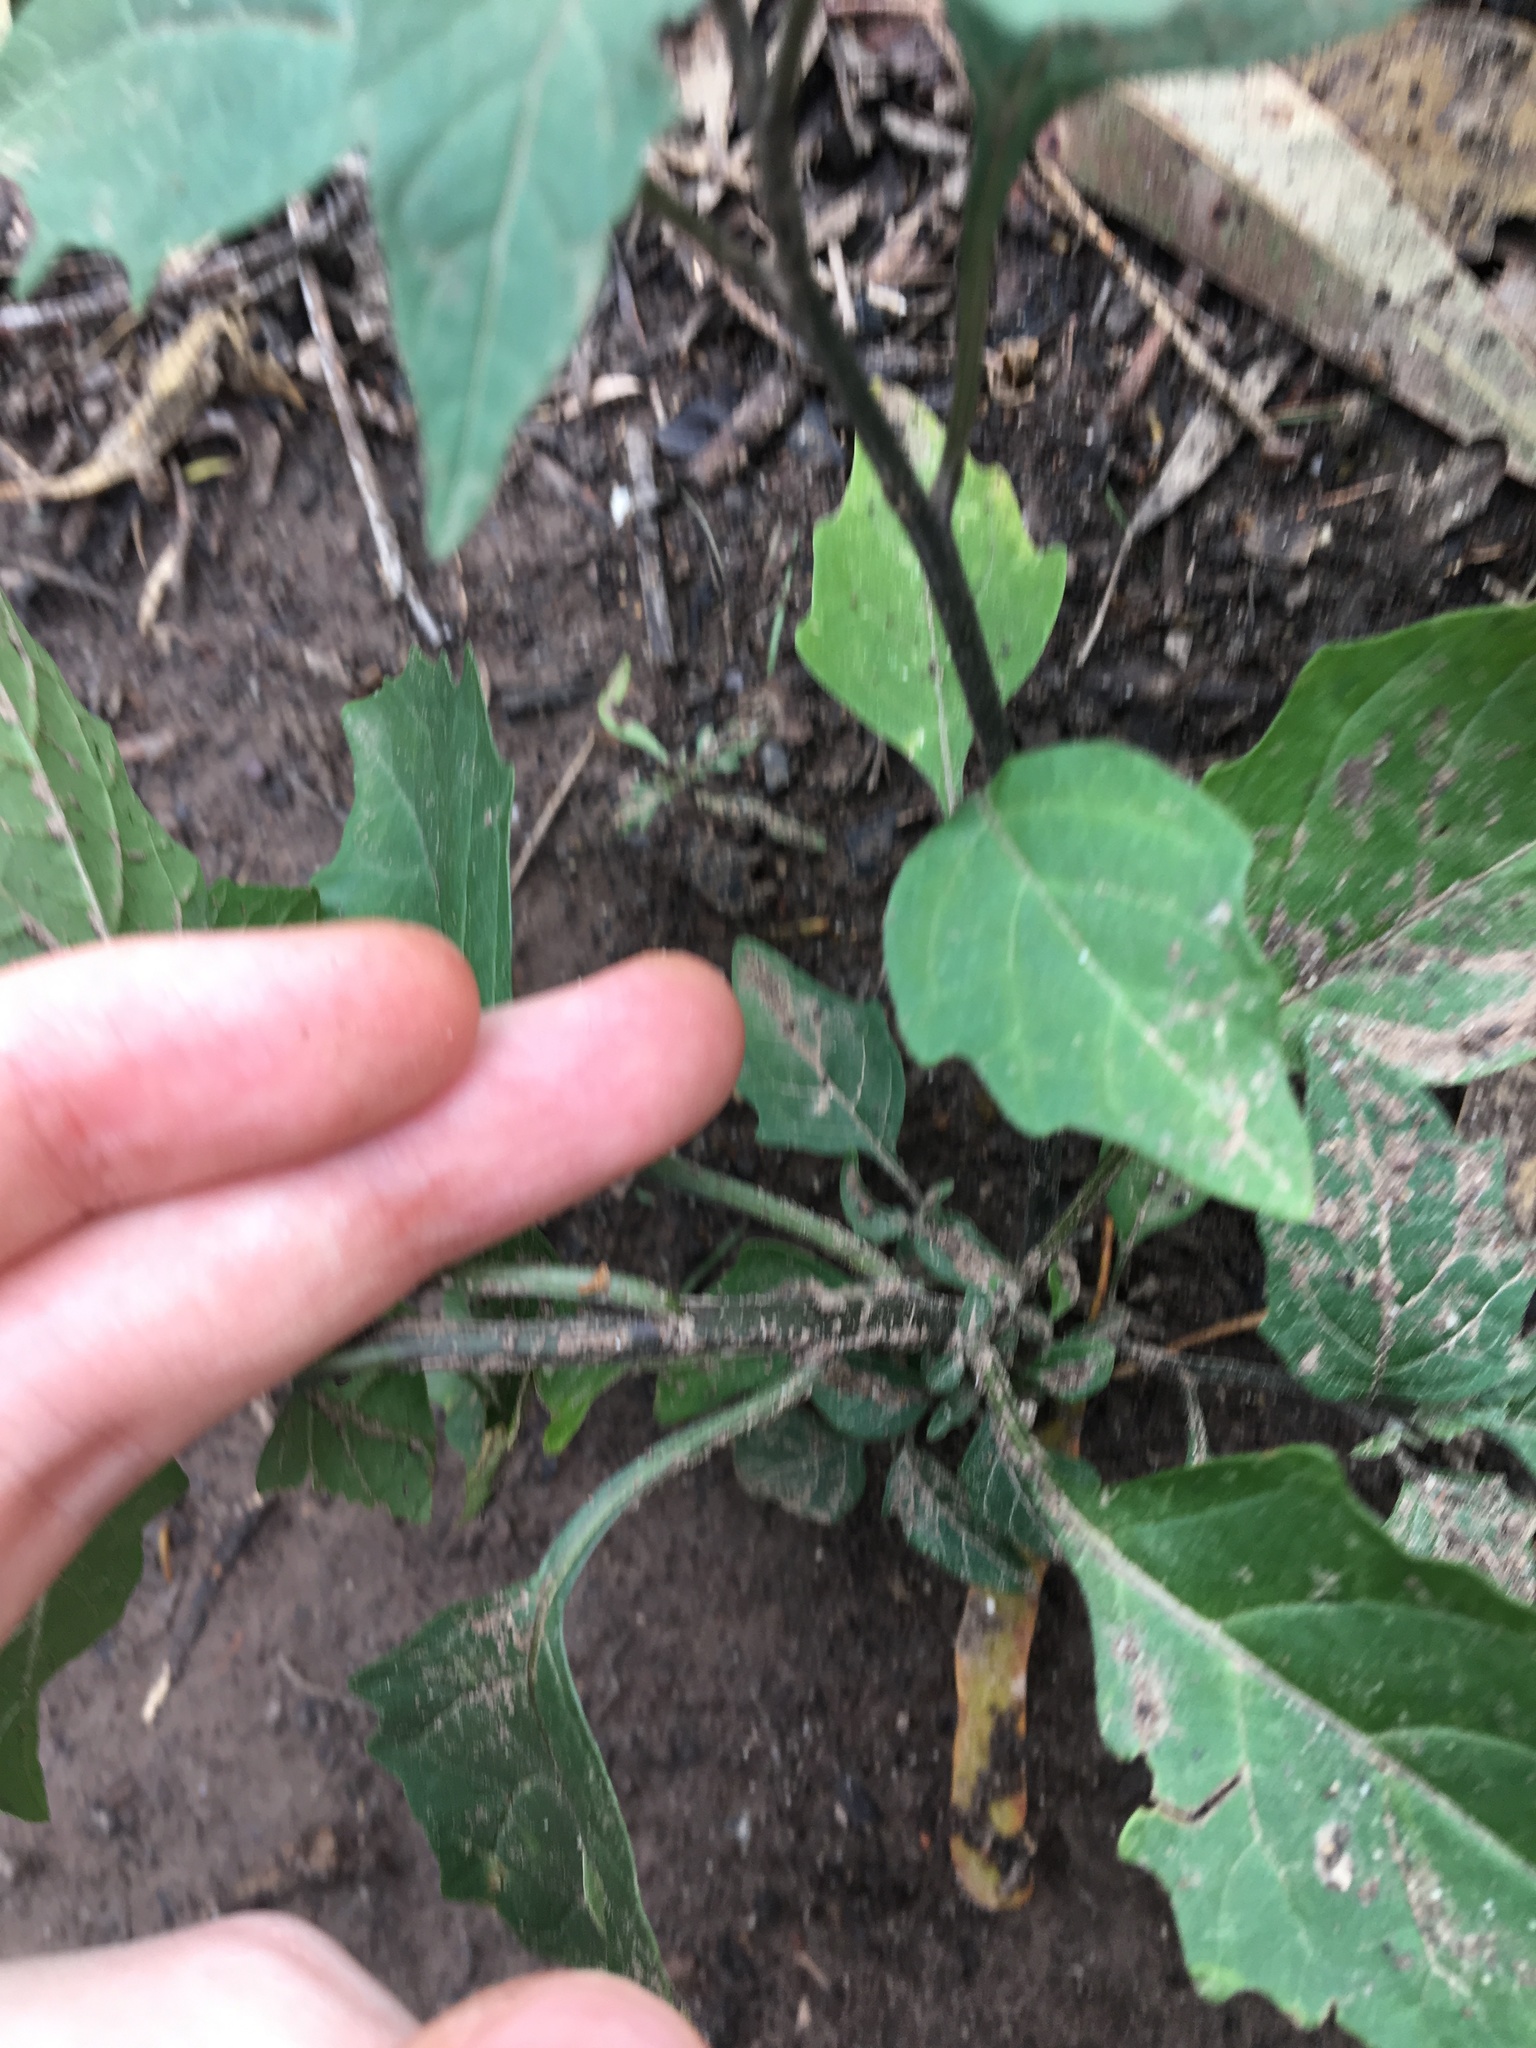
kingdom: Plantae
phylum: Tracheophyta
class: Magnoliopsida
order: Solanales
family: Solanaceae
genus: Solanum
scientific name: Solanum nigrum
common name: Black nightshade
